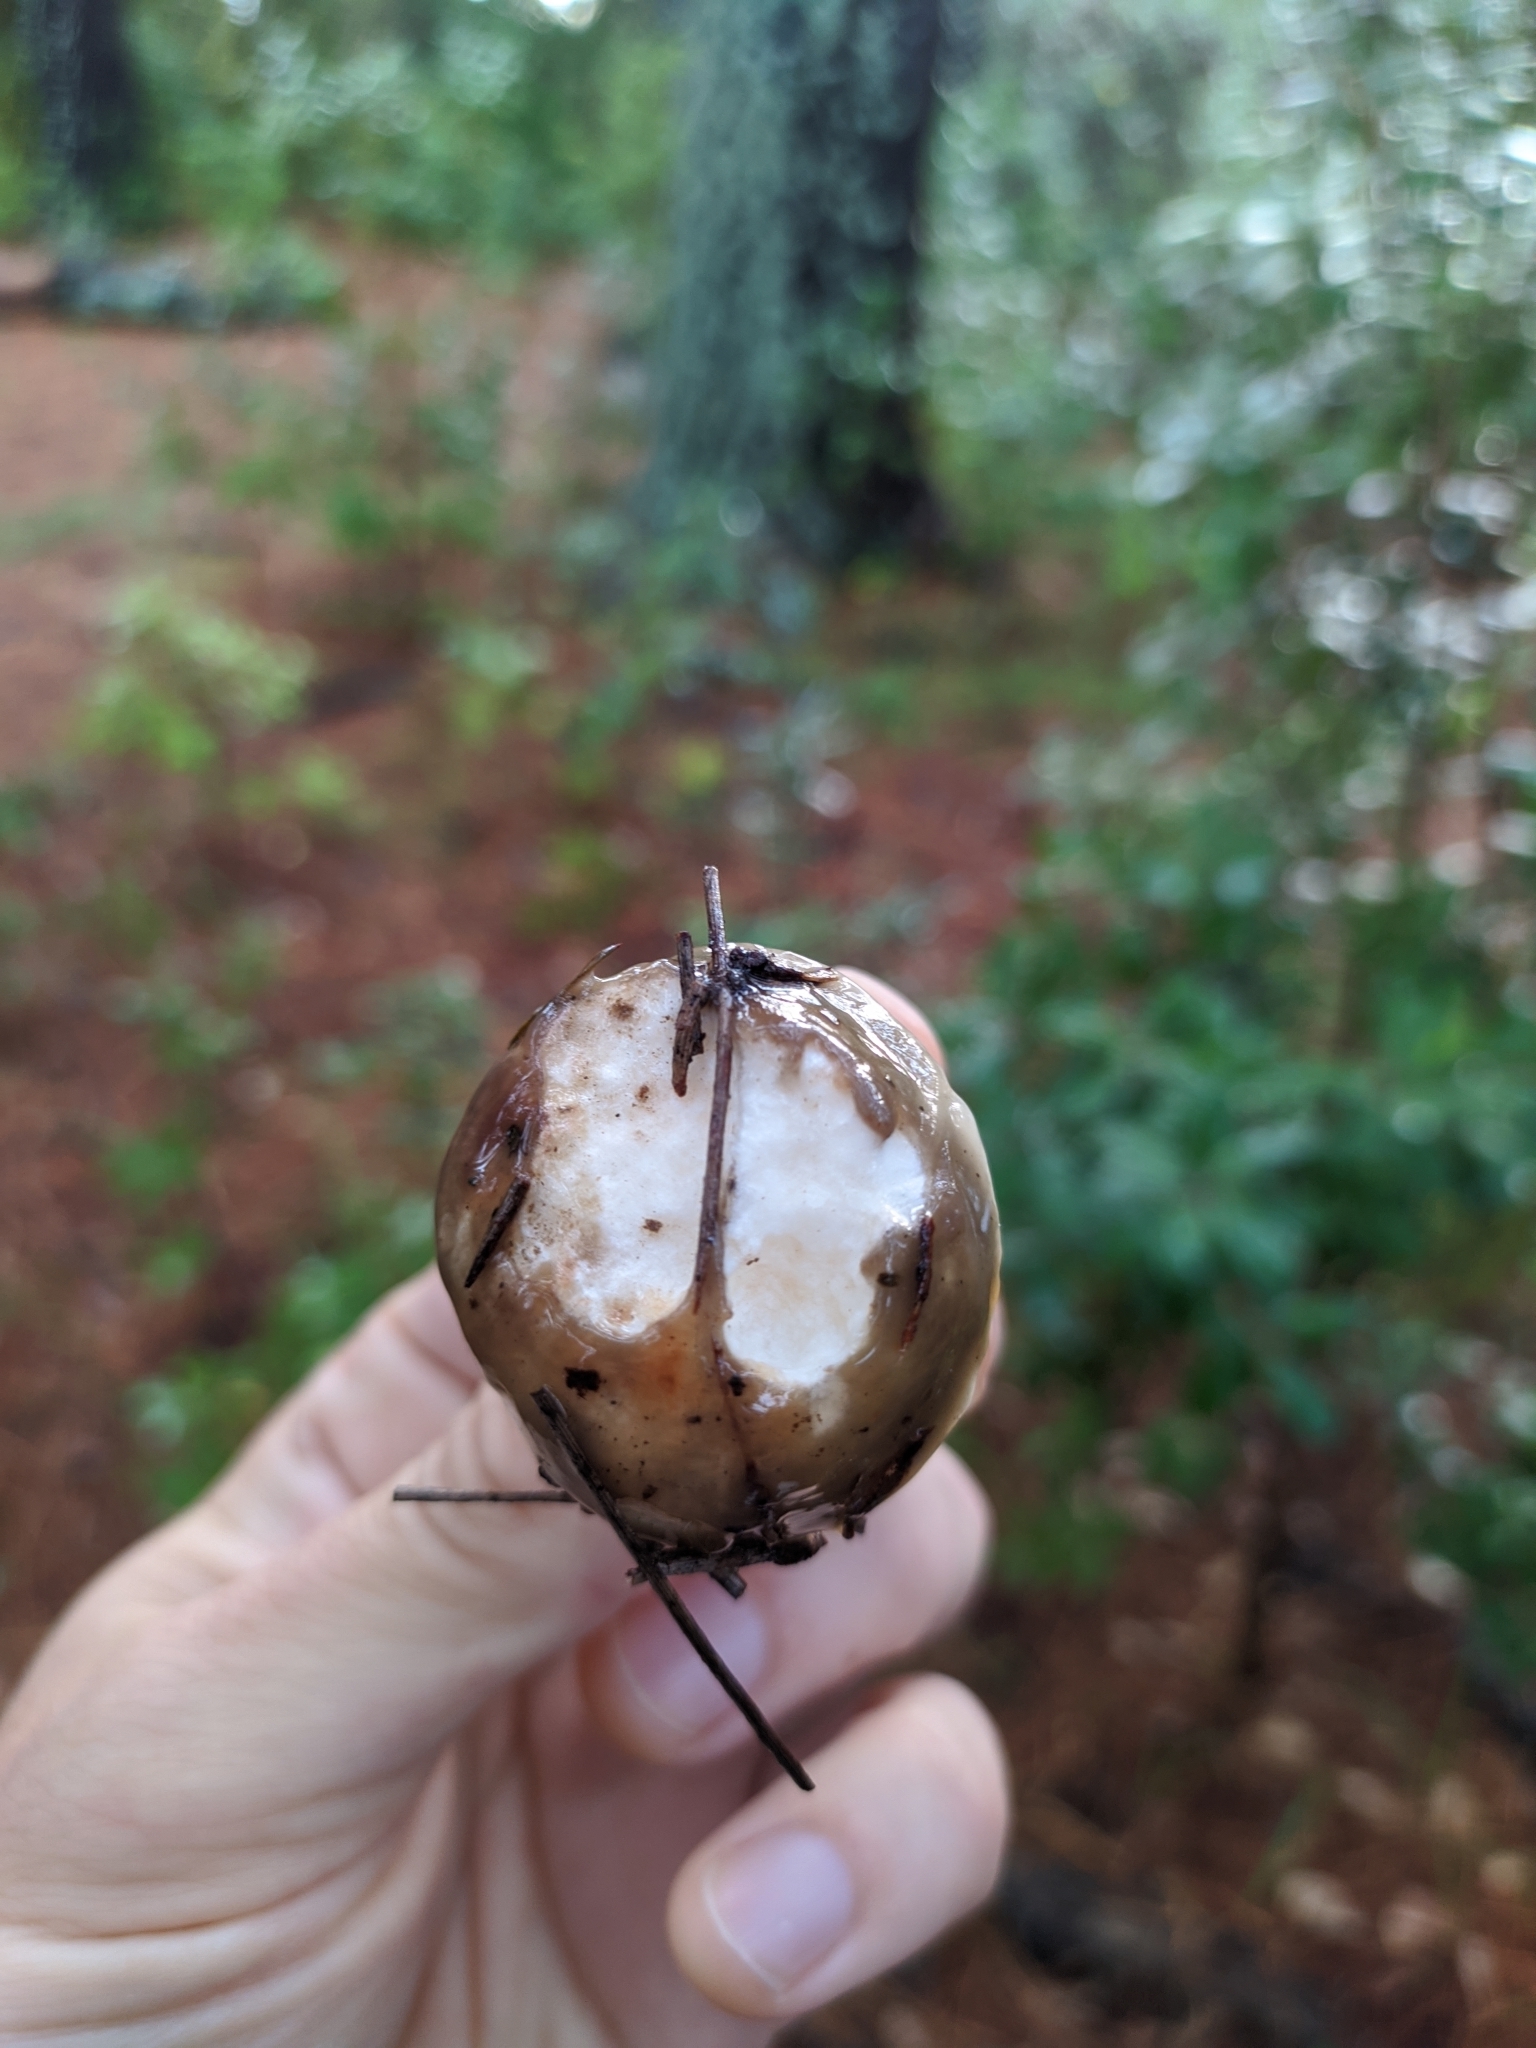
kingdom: Fungi
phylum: Basidiomycota
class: Agaricomycetes
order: Boletales
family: Suillaceae
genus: Suillus
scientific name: Suillus pungens
